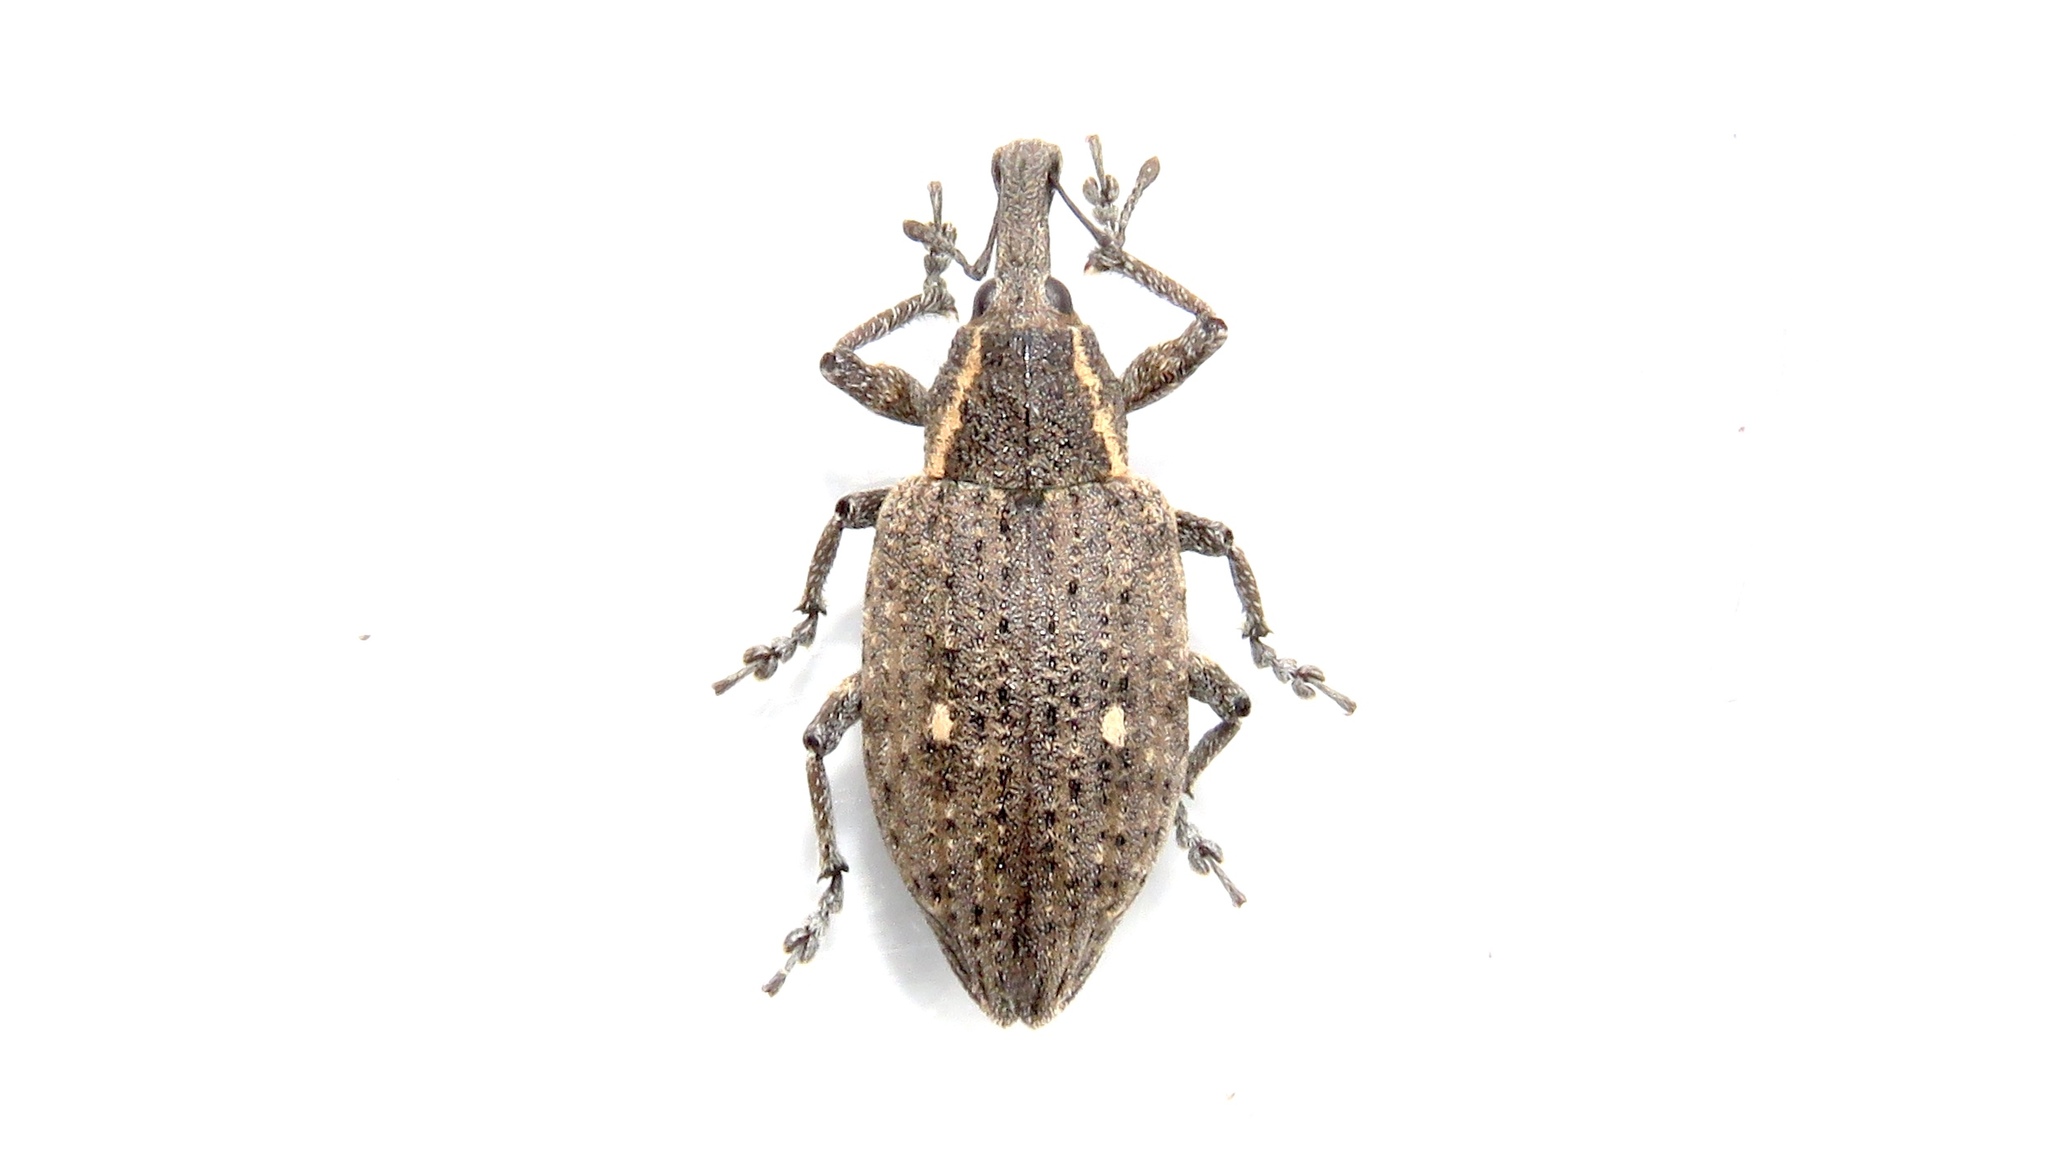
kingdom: Animalia
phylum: Arthropoda
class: Insecta
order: Coleoptera
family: Curculionidae
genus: Lepyrus
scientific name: Lepyrus palustris
